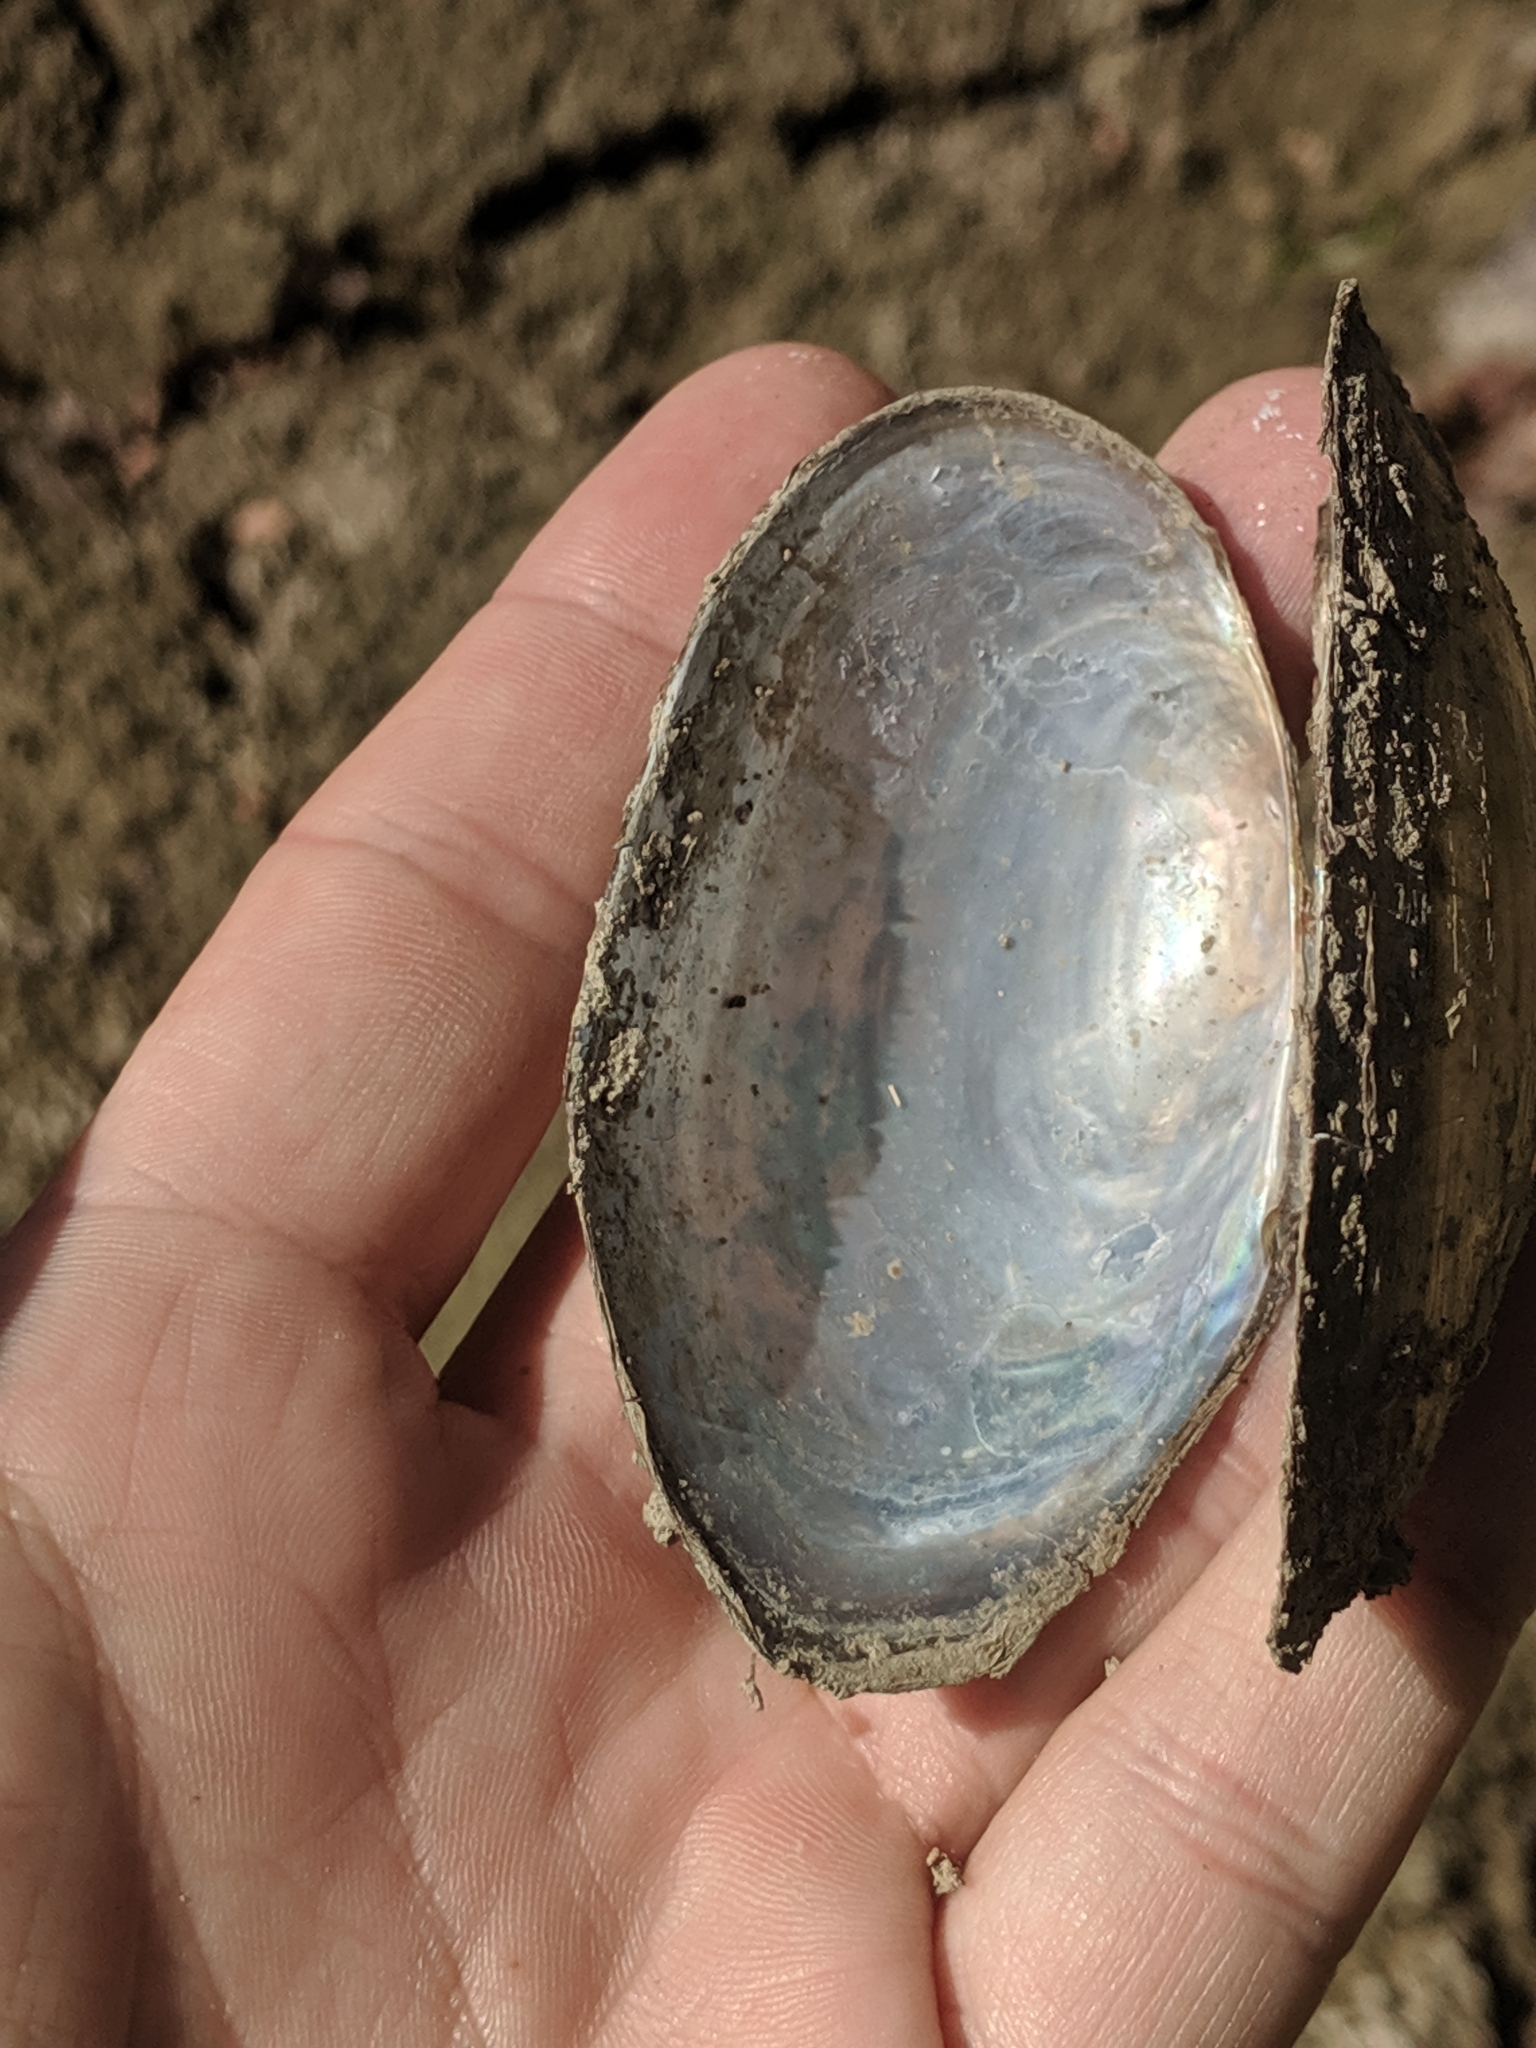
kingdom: Animalia
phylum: Mollusca
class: Bivalvia
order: Unionida
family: Unionidae
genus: Utterbackia
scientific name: Utterbackia imbecillis
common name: Paper pondshell
